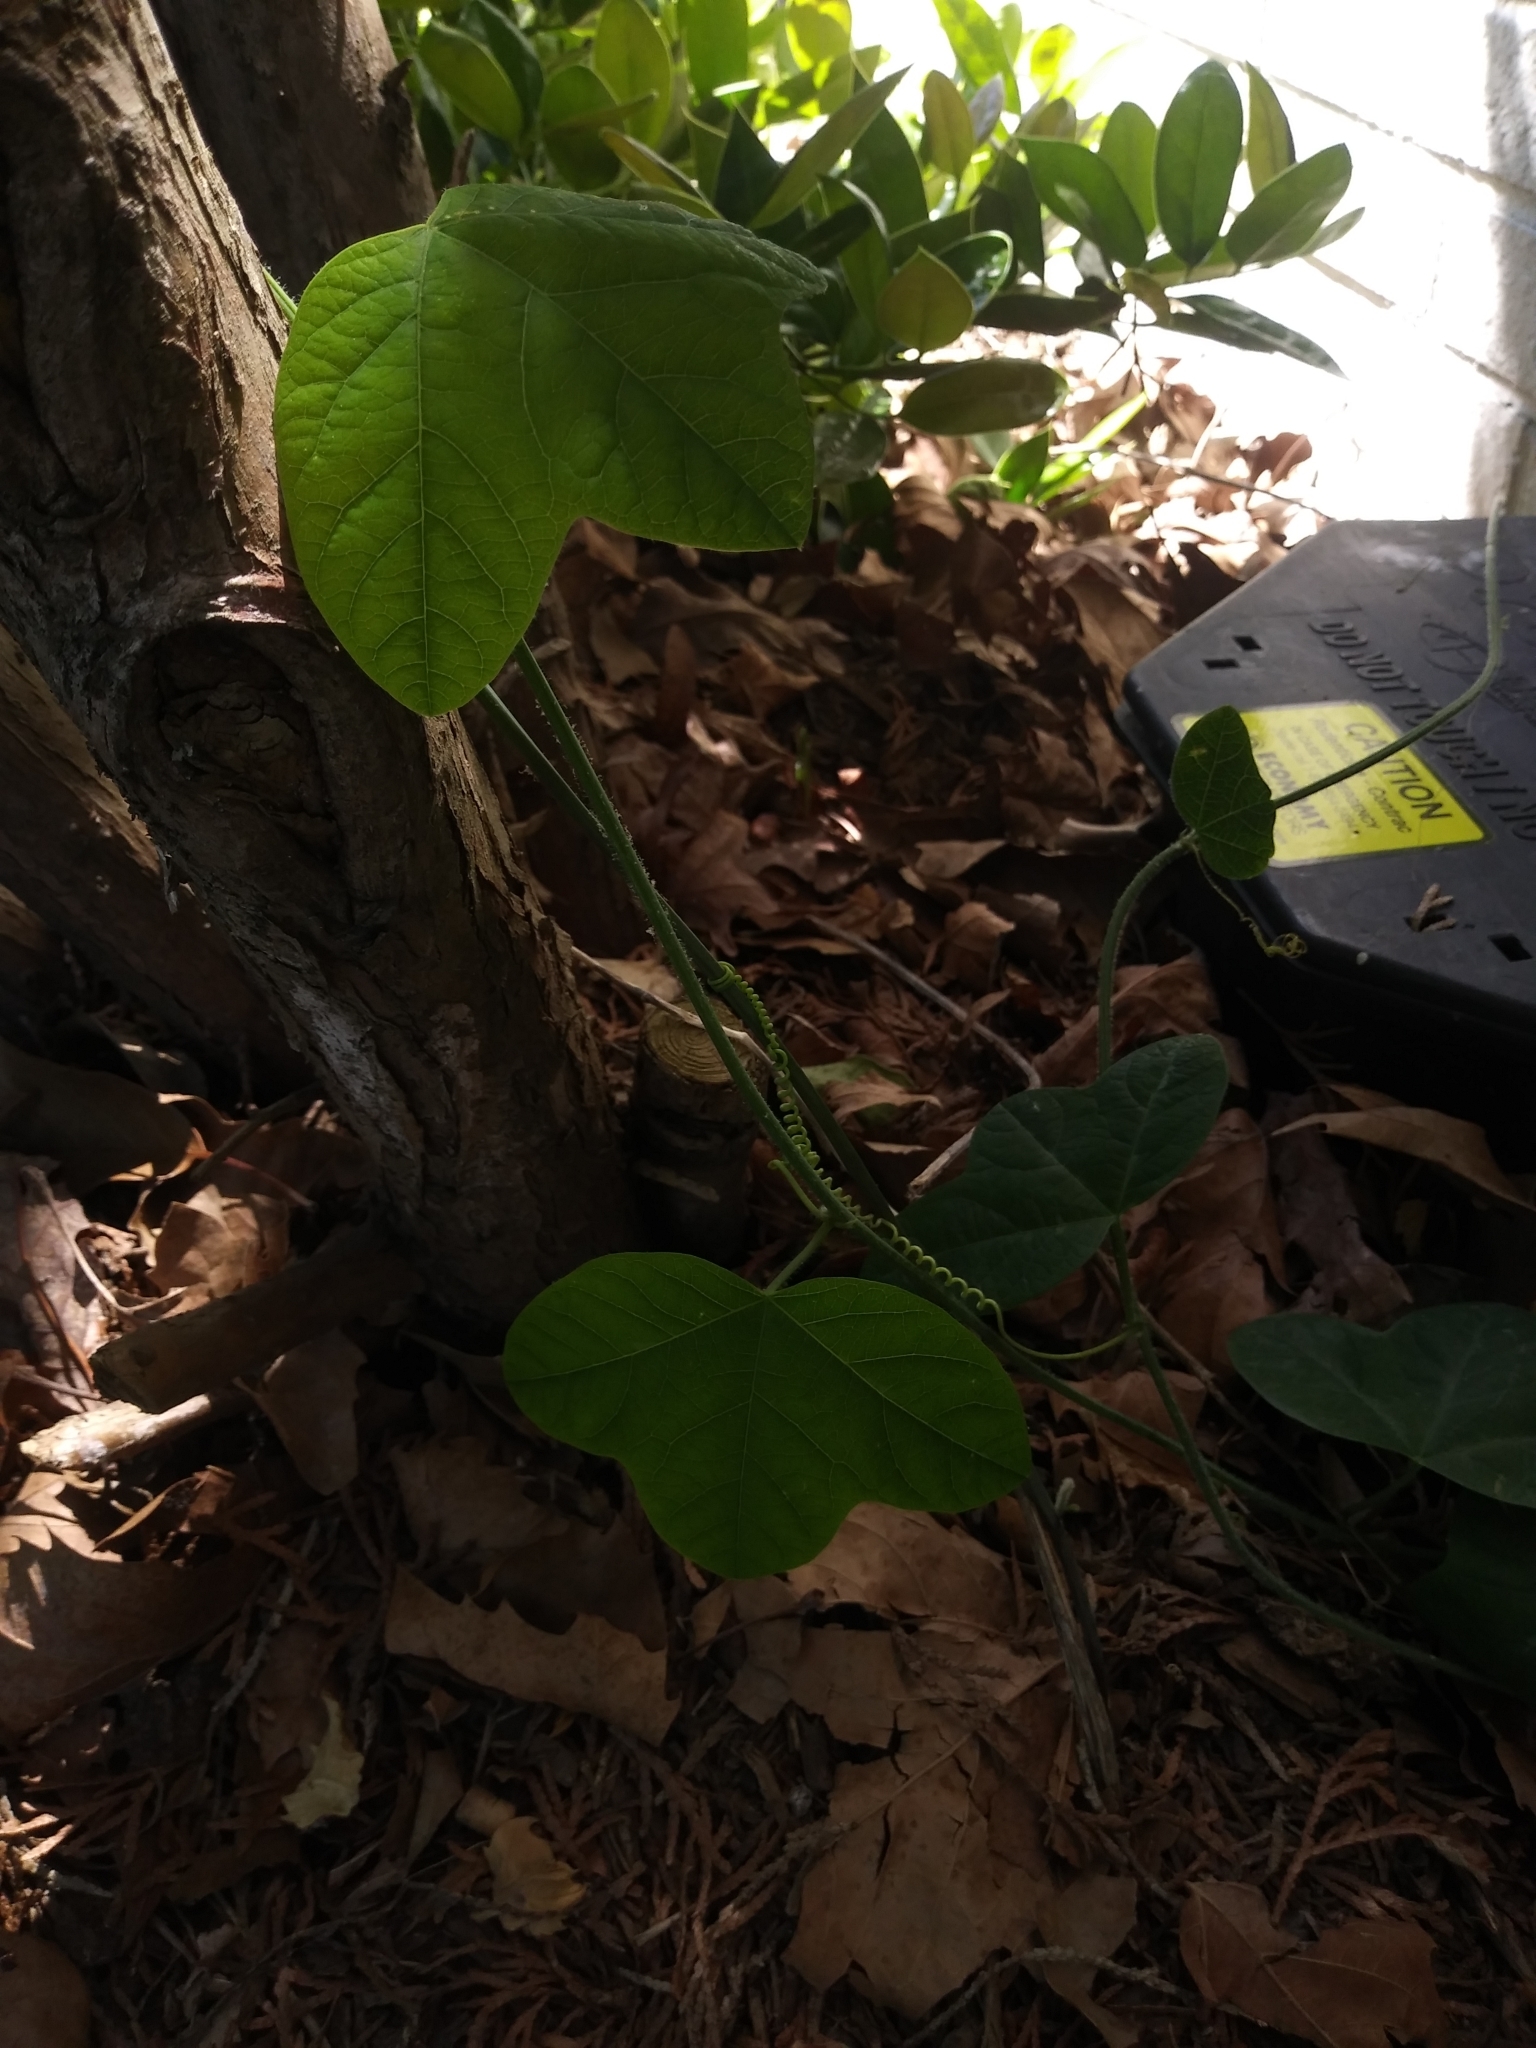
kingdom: Plantae
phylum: Tracheophyta
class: Magnoliopsida
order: Malpighiales
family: Passifloraceae
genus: Passiflora
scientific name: Passiflora lutea
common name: Yellow passionflower
